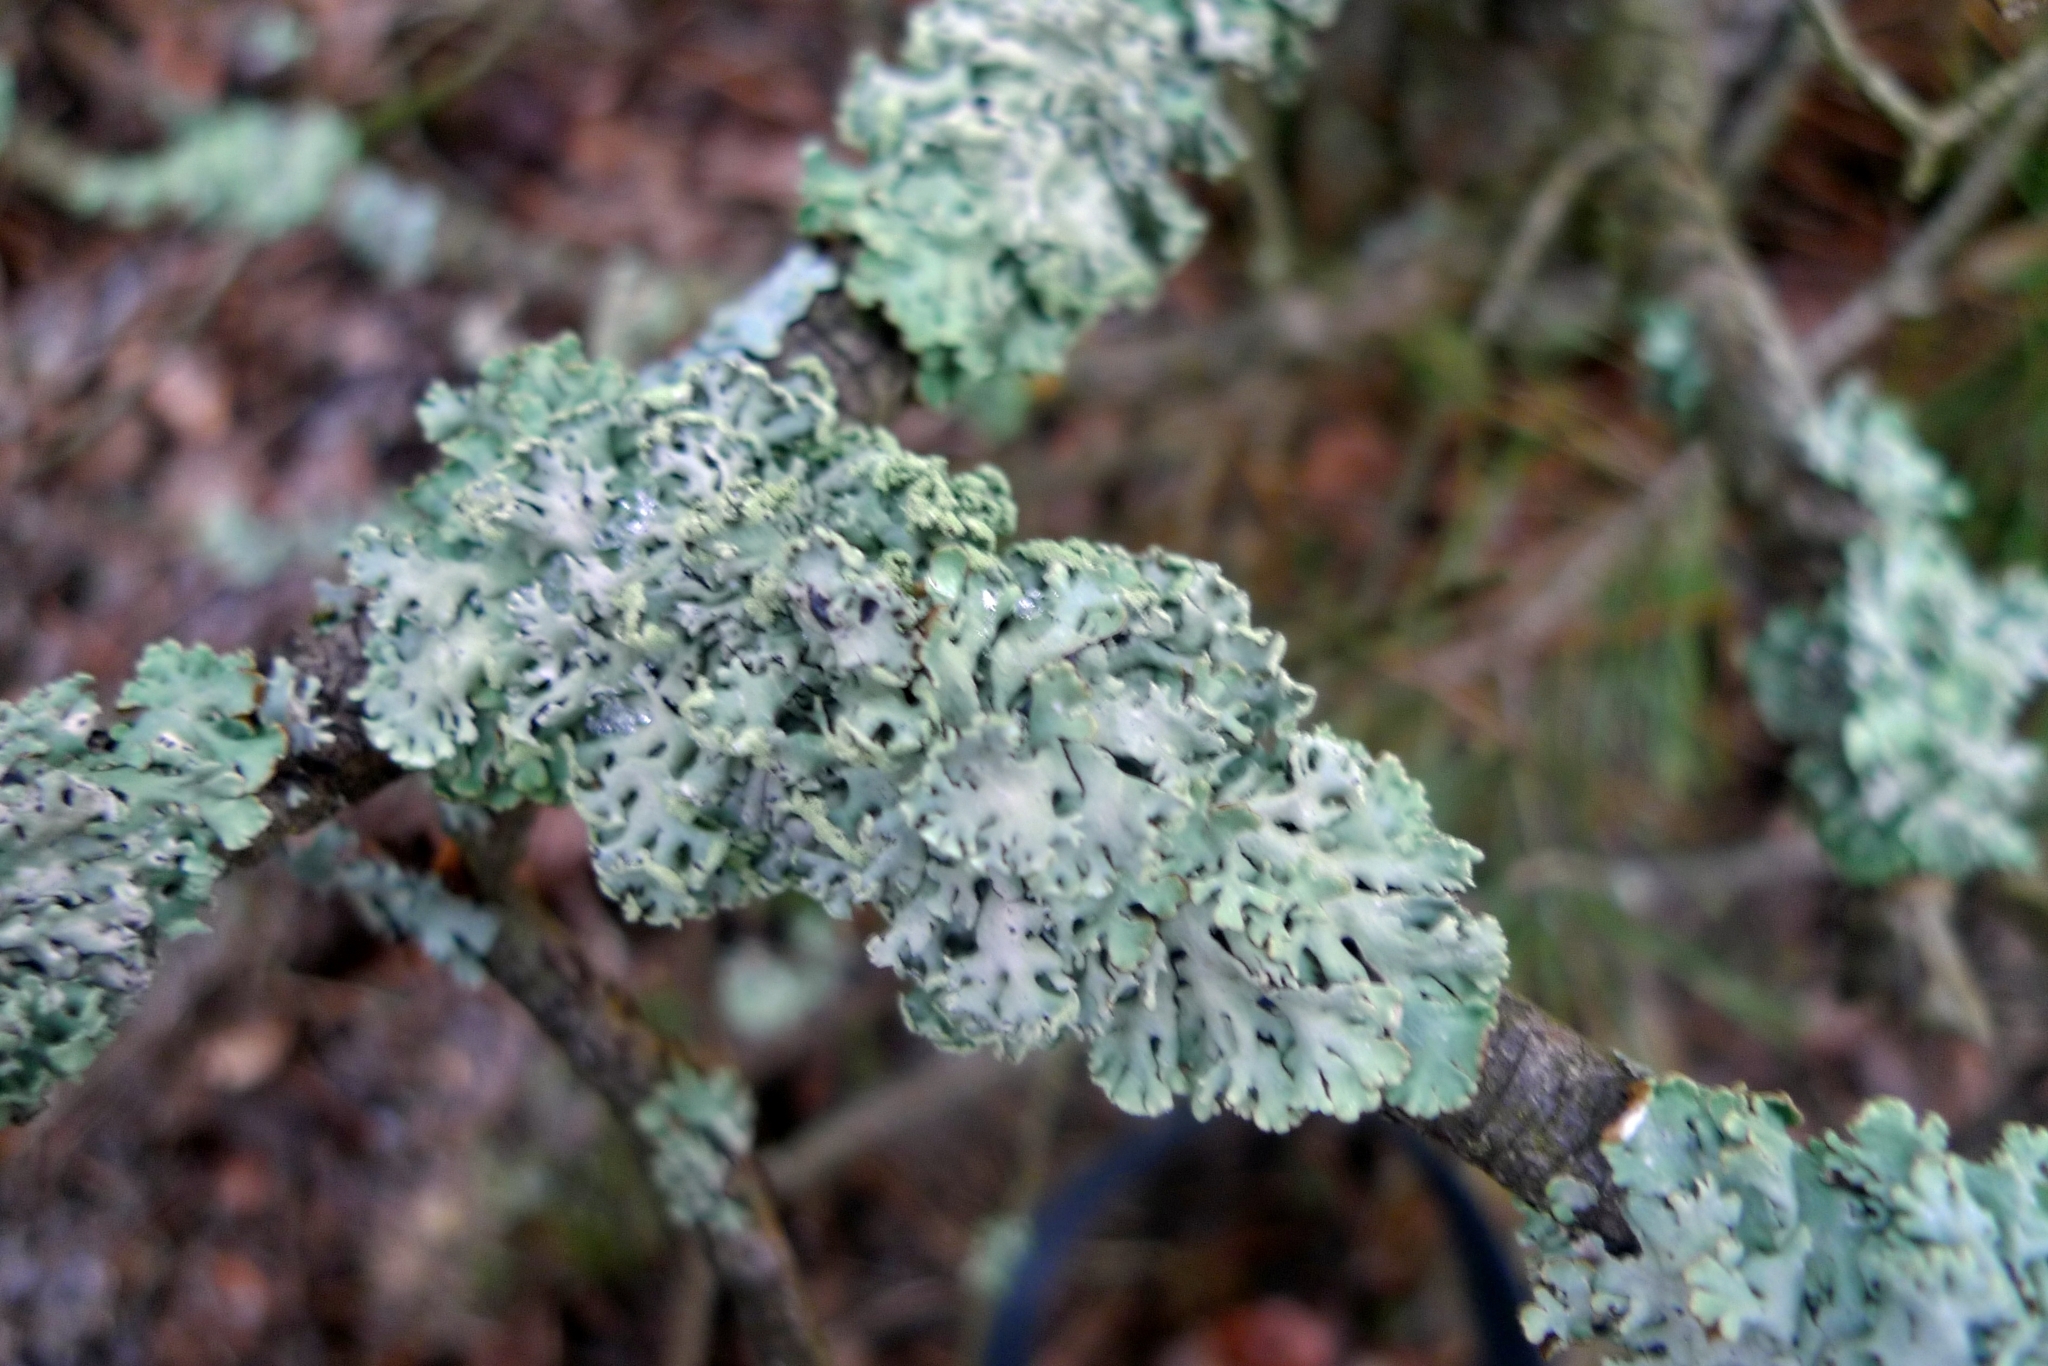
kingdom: Fungi
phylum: Ascomycota
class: Lecanoromycetes
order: Lecanorales
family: Parmeliaceae
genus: Hypogymnia
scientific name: Hypogymnia physodes
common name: Dark crottle
